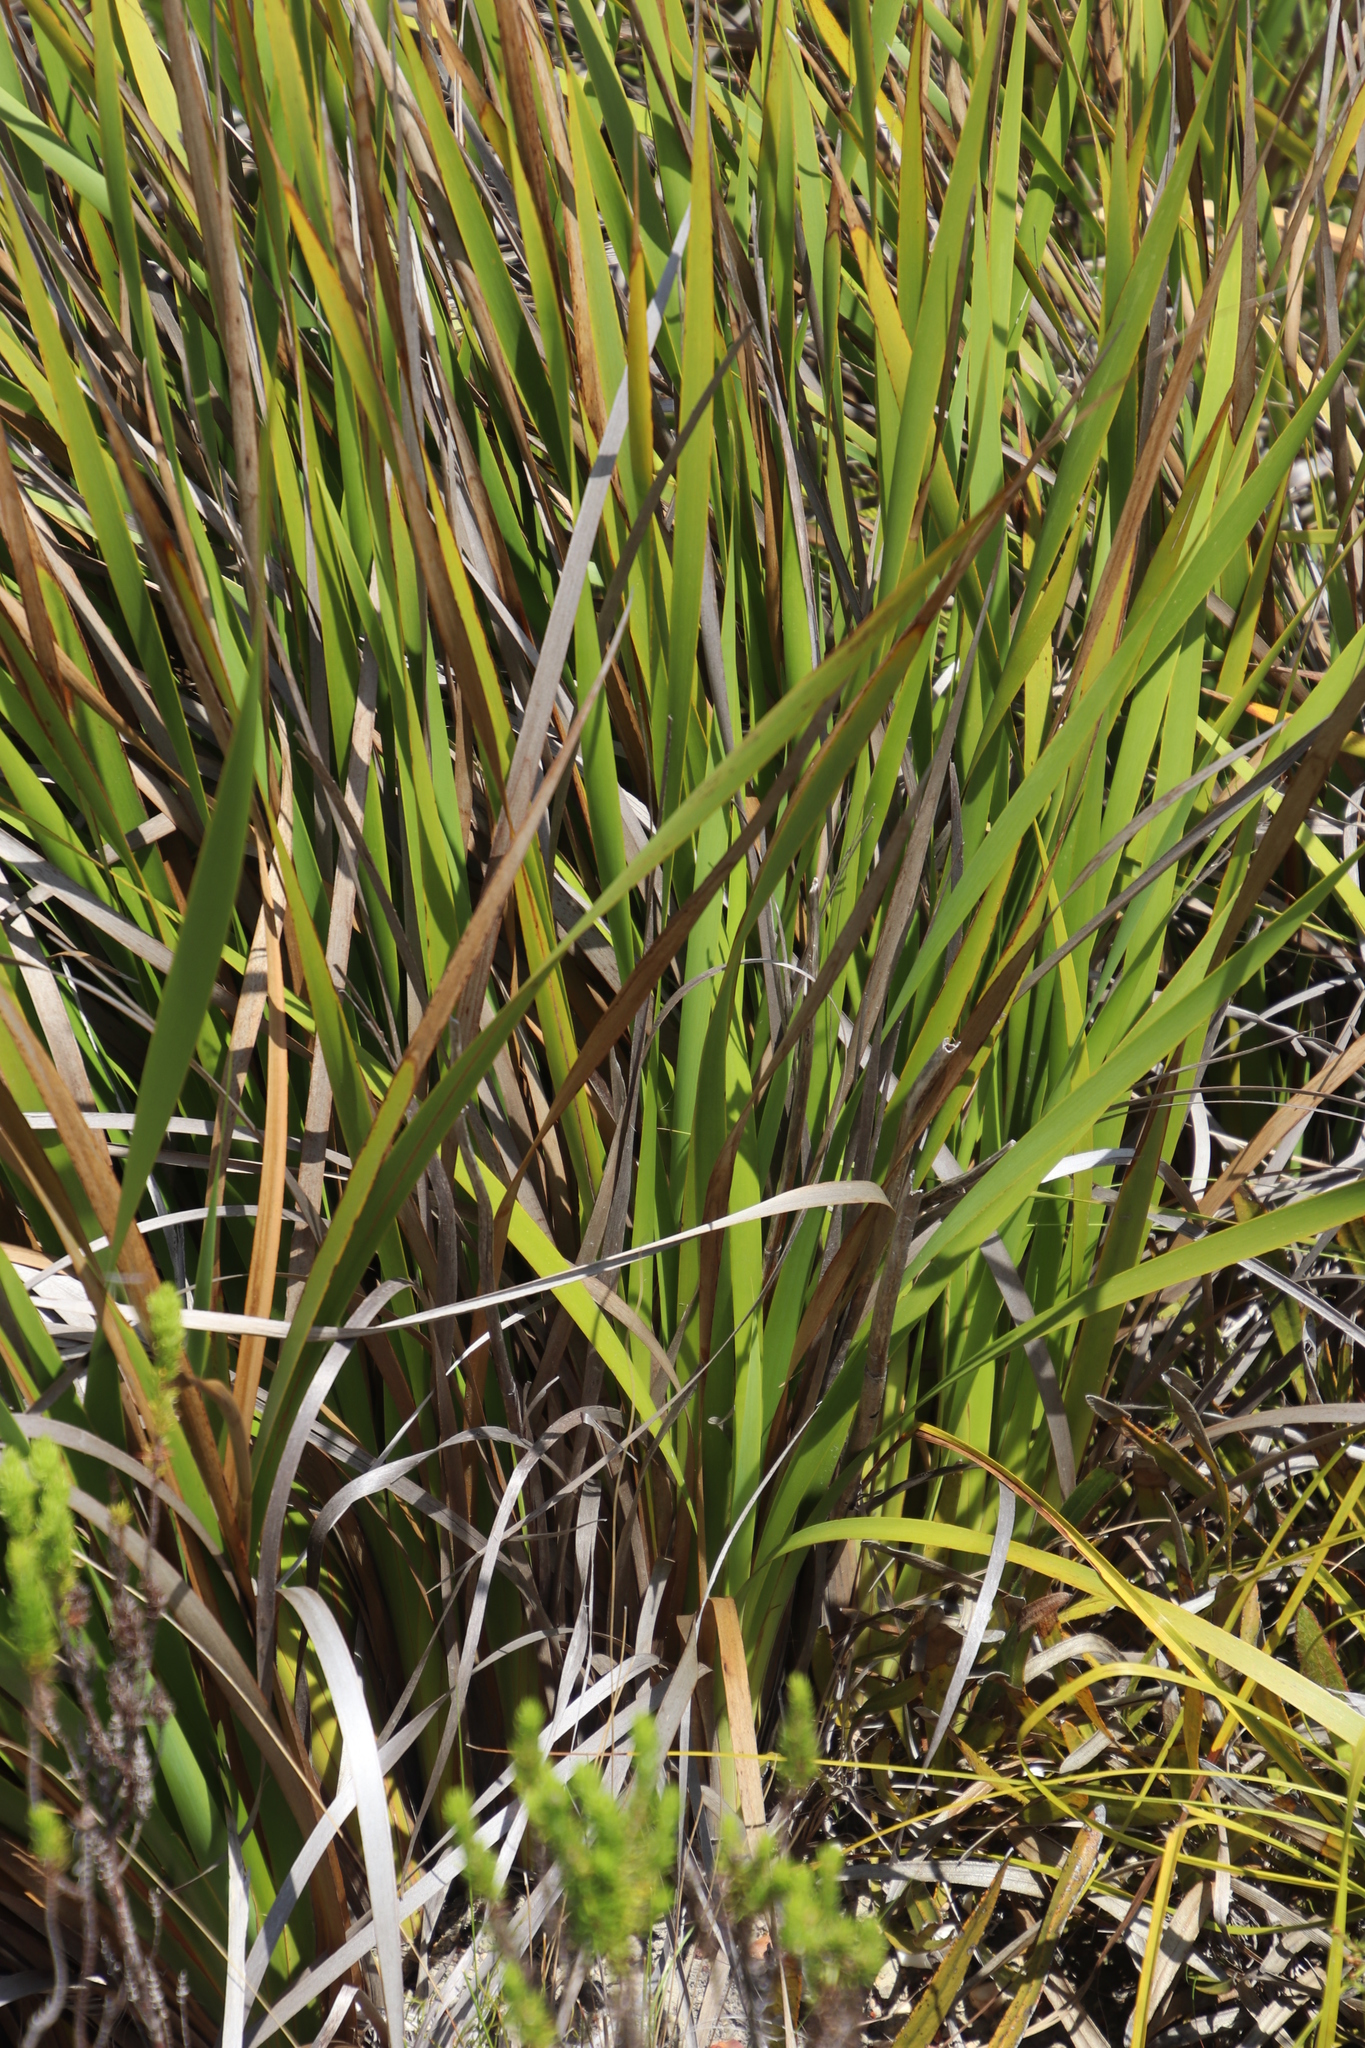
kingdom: Plantae
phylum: Tracheophyta
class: Liliopsida
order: Asparagales
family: Iridaceae
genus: Aristea
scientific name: Aristea bakeri
